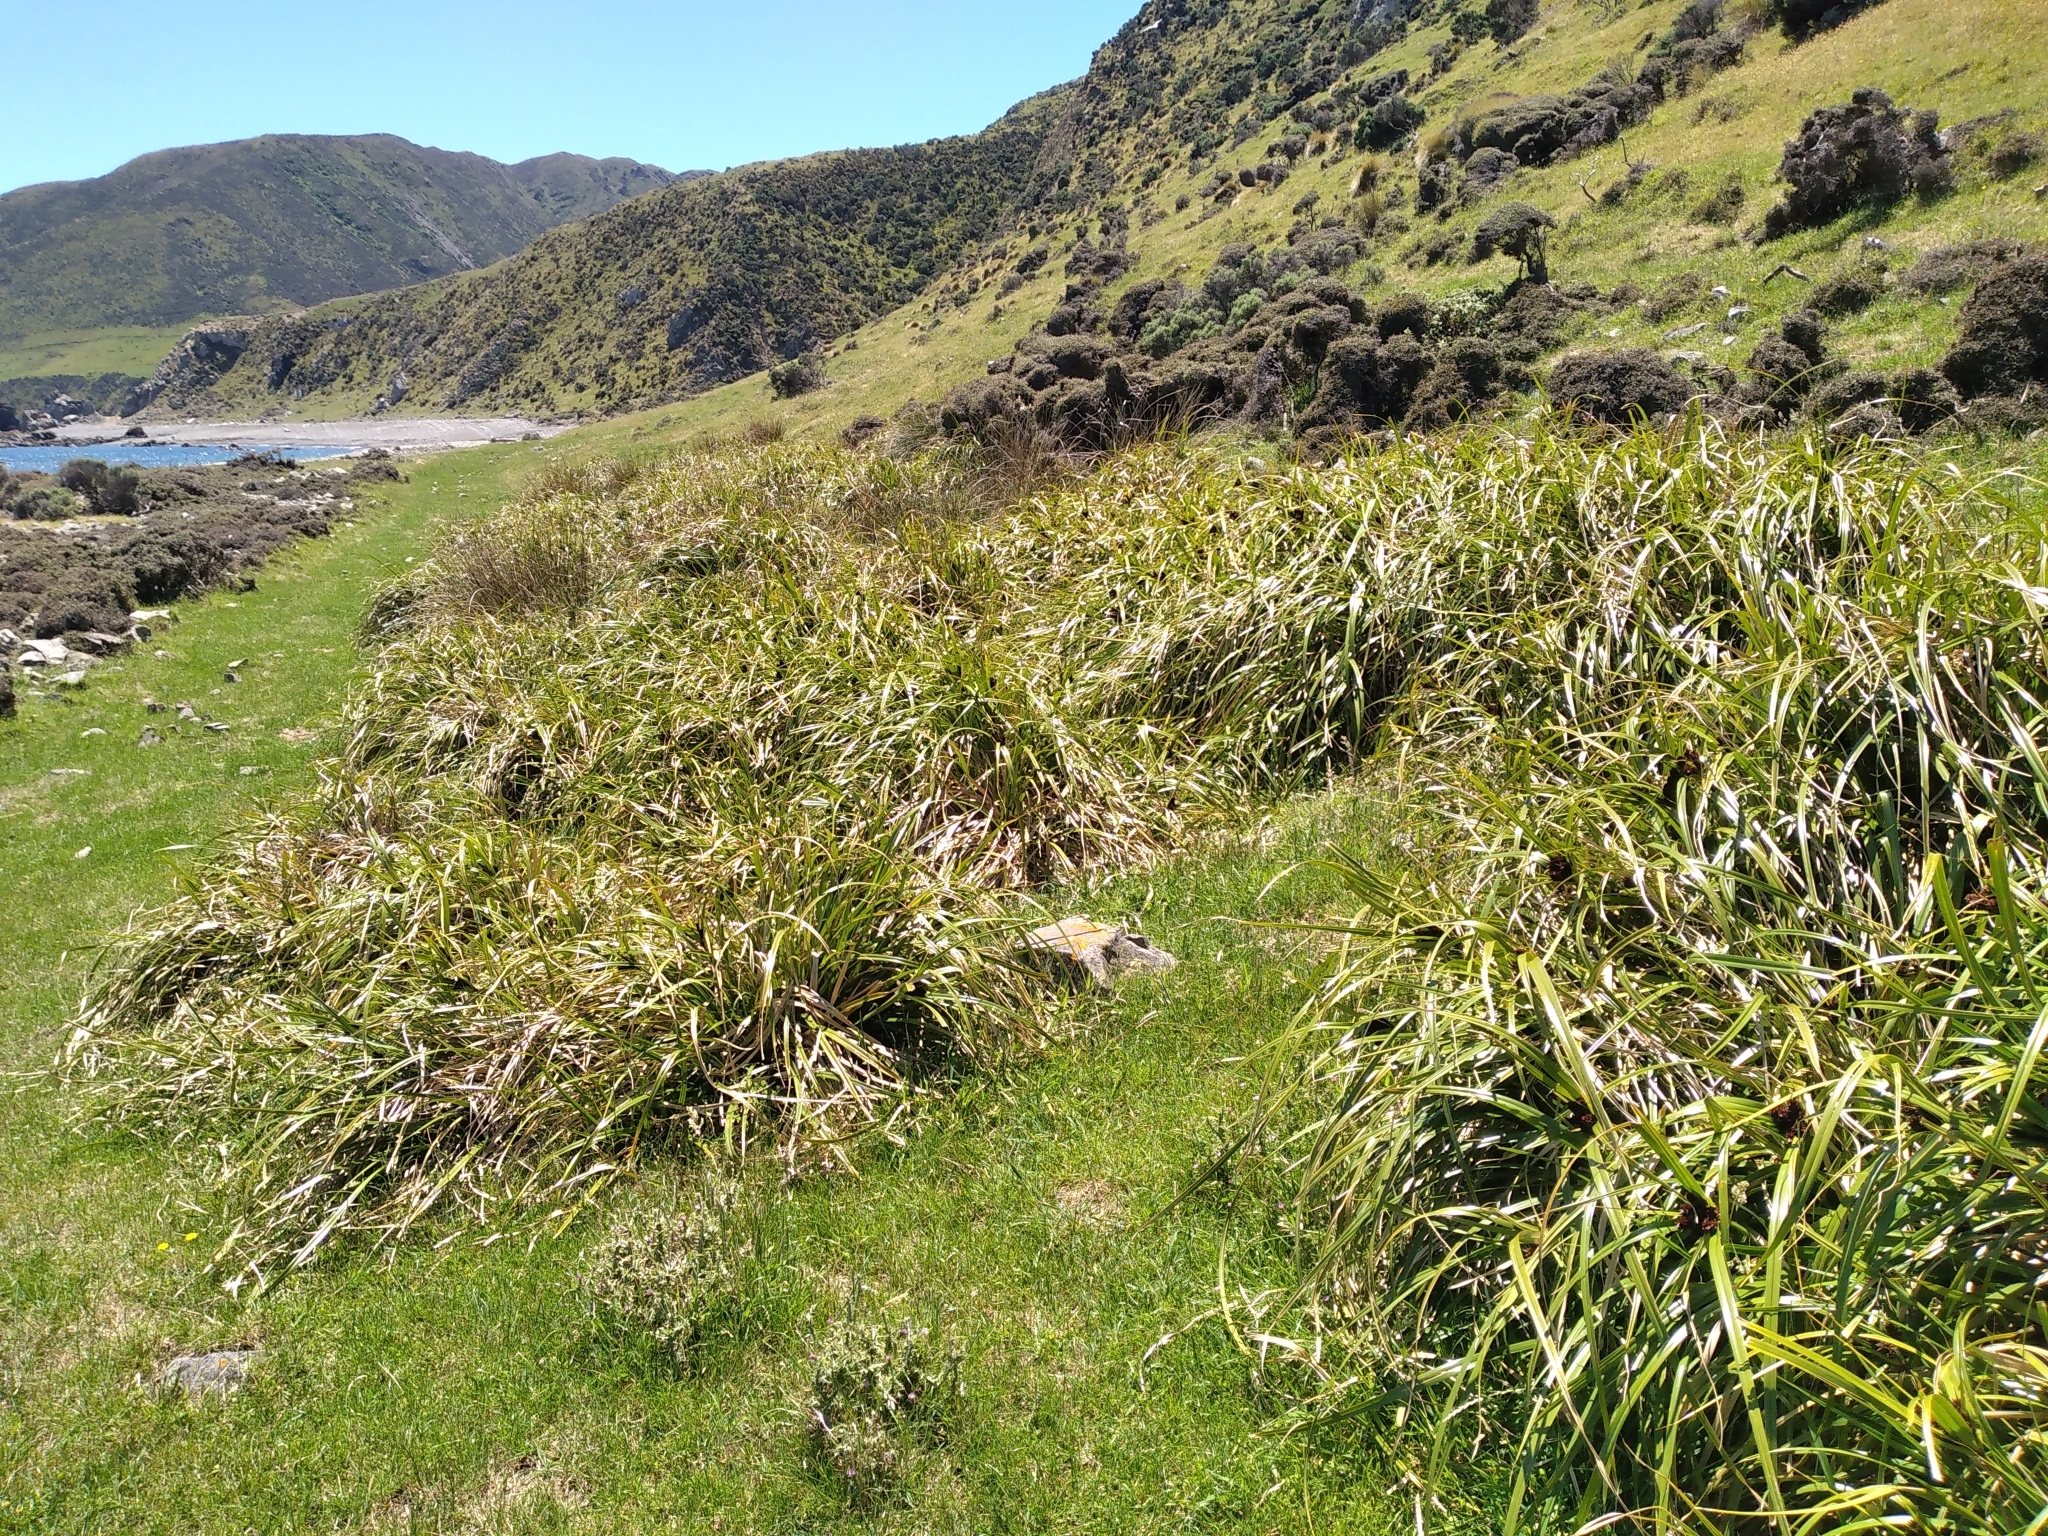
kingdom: Plantae
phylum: Tracheophyta
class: Liliopsida
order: Poales
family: Cyperaceae
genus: Cyperus
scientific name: Cyperus ustulatus
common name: Giant umbrella-sedge
